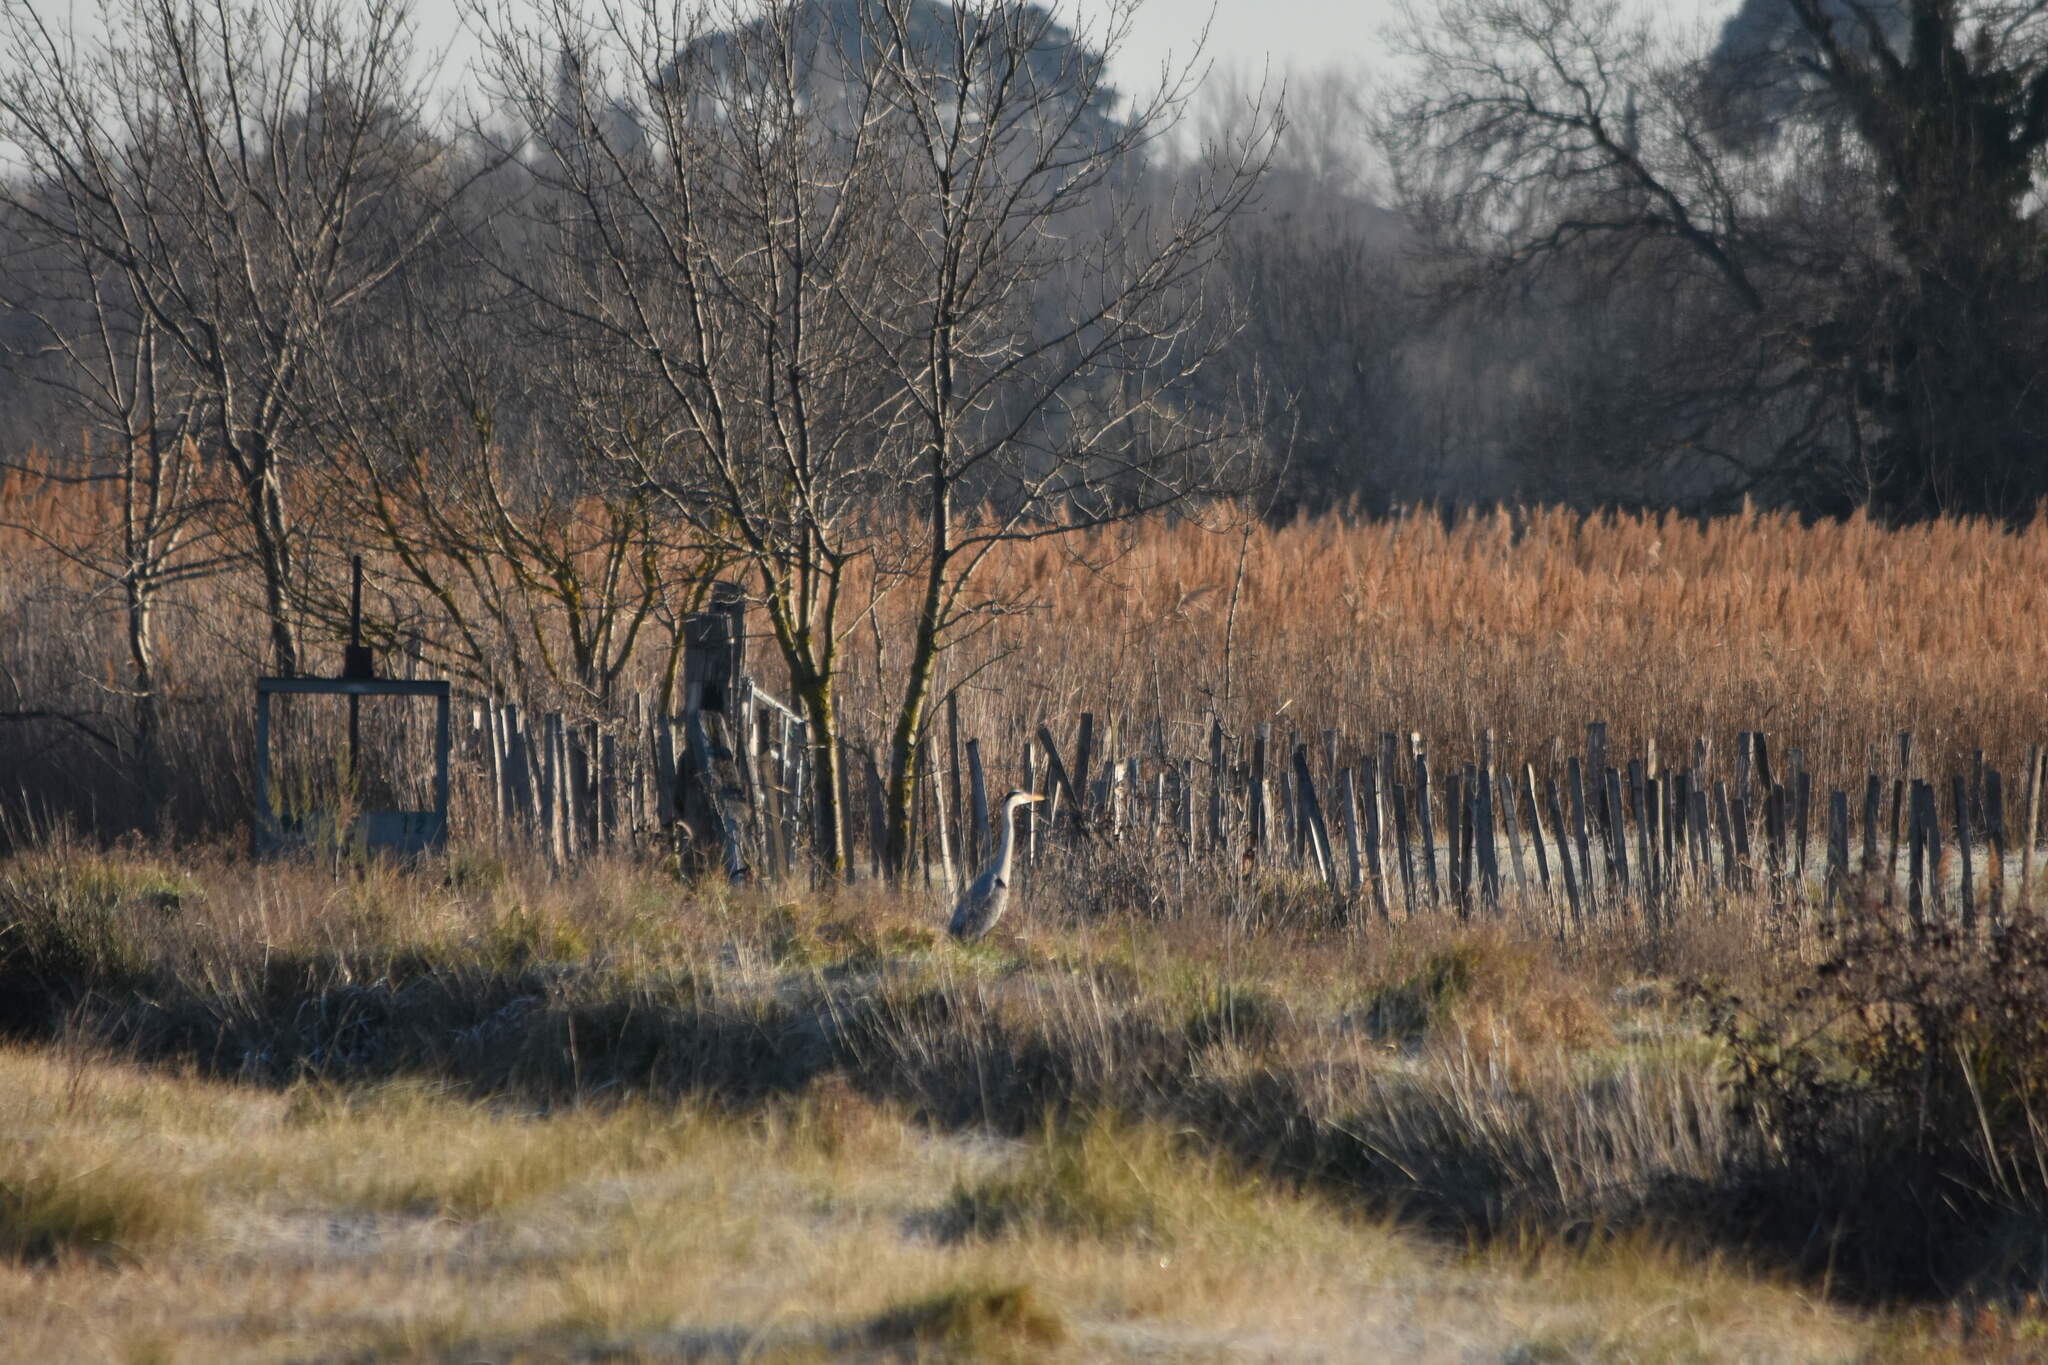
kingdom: Animalia
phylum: Chordata
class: Aves
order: Pelecaniformes
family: Ardeidae
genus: Ardea
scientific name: Ardea cinerea
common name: Grey heron
